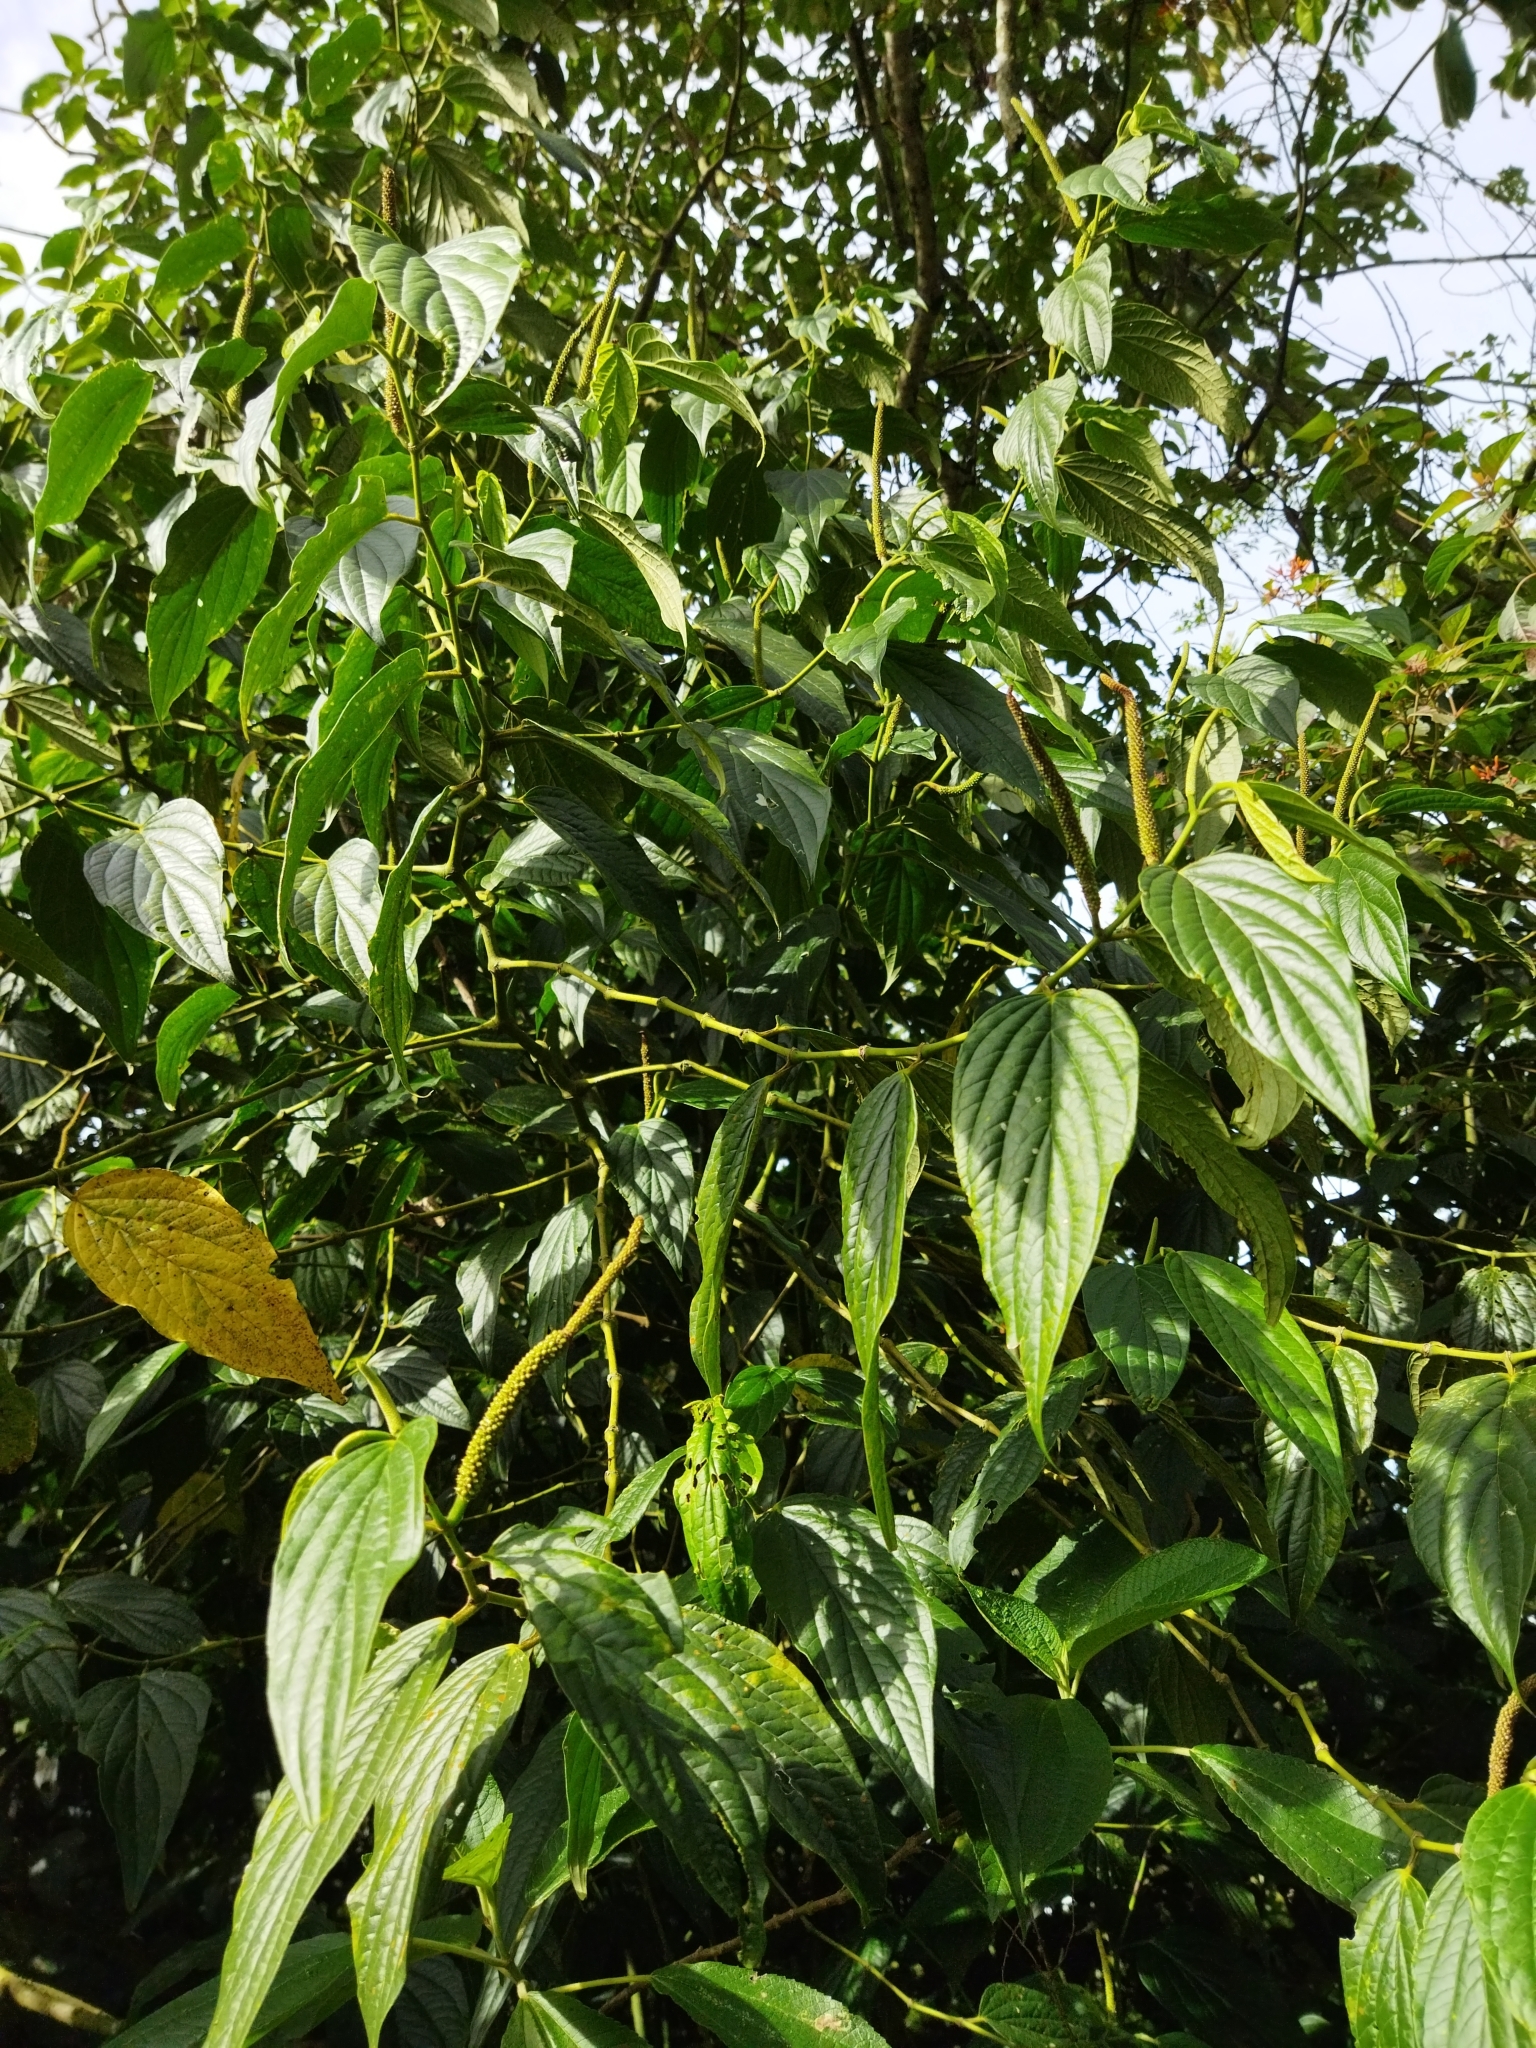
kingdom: Plantae
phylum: Tracheophyta
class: Magnoliopsida
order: Piperales
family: Piperaceae
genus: Piper
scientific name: Piper aduncum
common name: Spiked pepper
